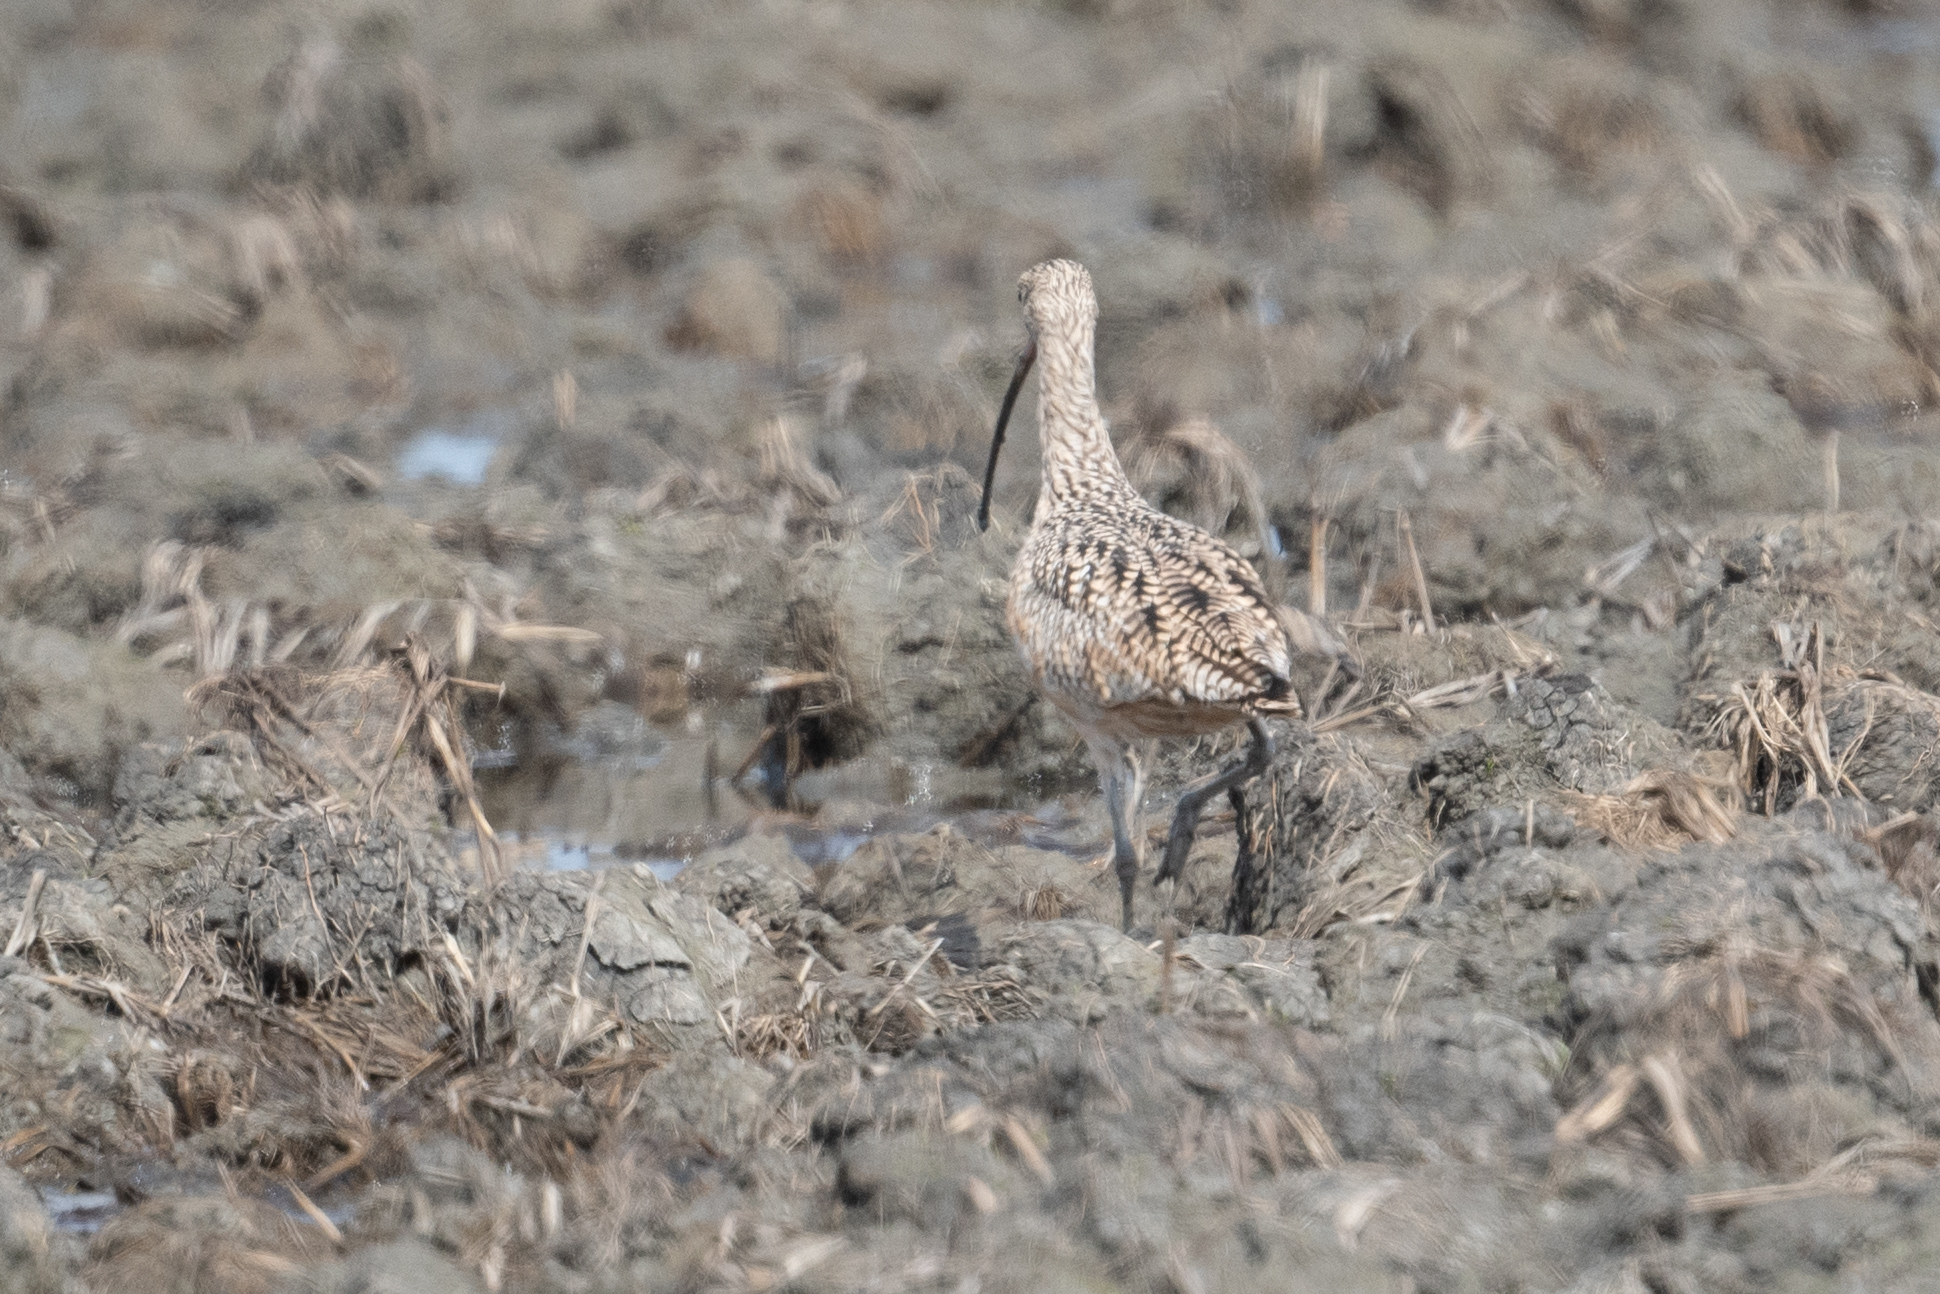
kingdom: Animalia
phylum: Chordata
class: Aves
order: Charadriiformes
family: Scolopacidae
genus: Numenius
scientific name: Numenius americanus
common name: Long-billed curlew
